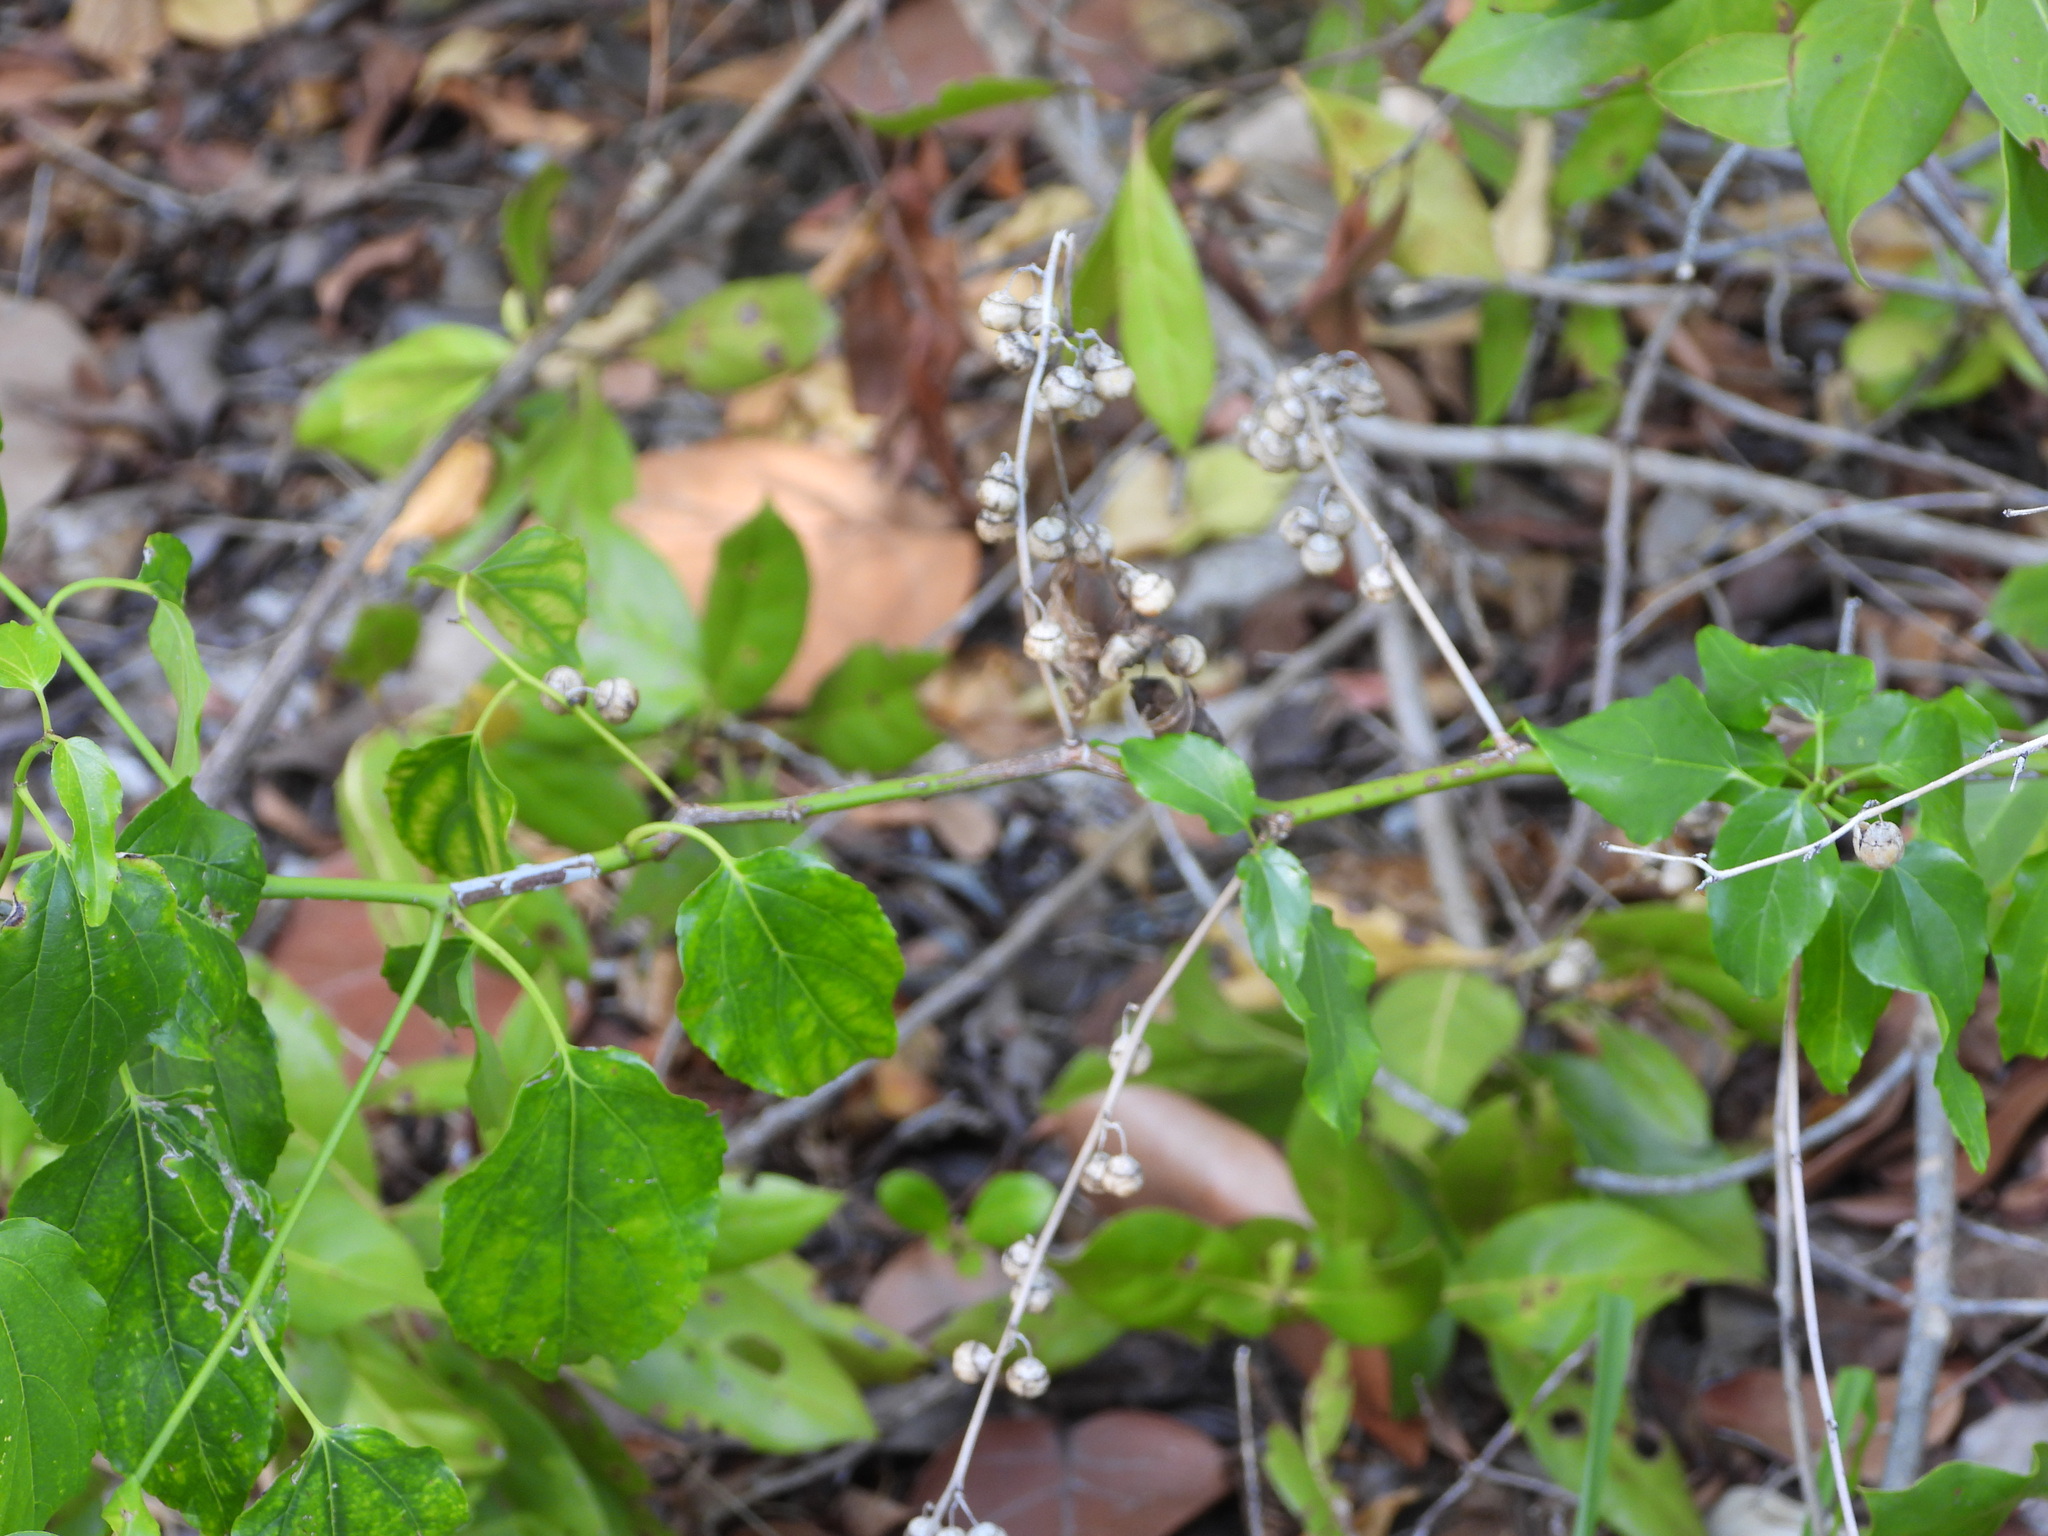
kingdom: Plantae
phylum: Tracheophyta
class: Magnoliopsida
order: Rosales
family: Rhamnaceae
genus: Colubrina
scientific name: Colubrina asiatica
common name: Asian nakedwood
